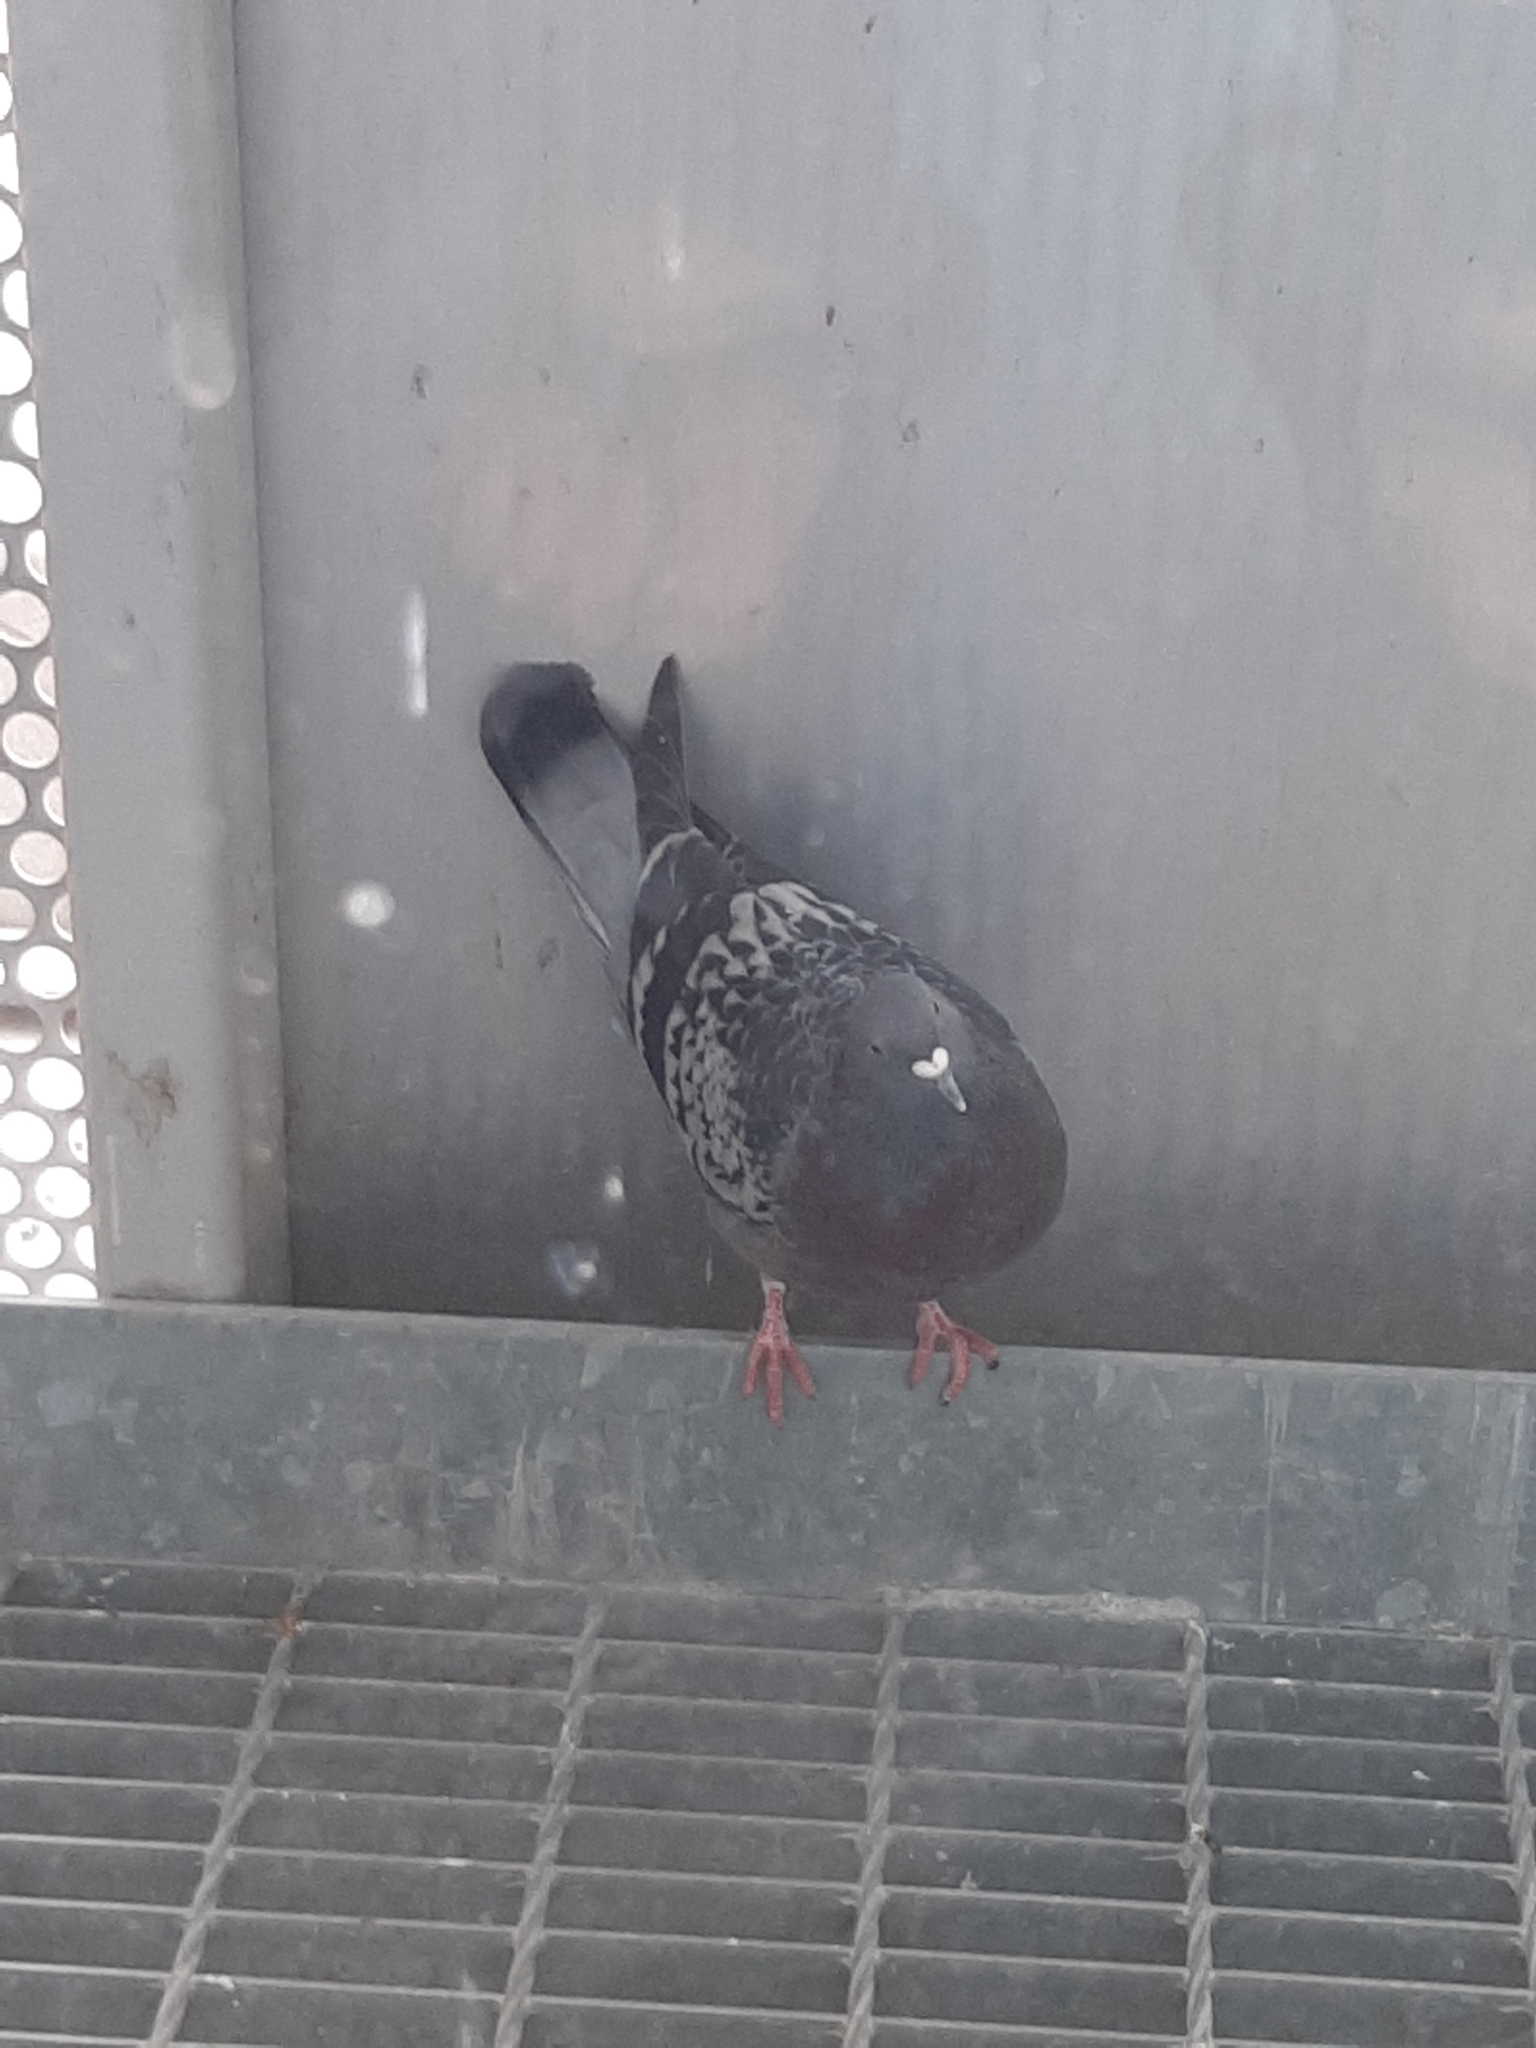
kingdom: Animalia
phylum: Chordata
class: Aves
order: Columbiformes
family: Columbidae
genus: Columba
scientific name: Columba livia
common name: Rock pigeon
